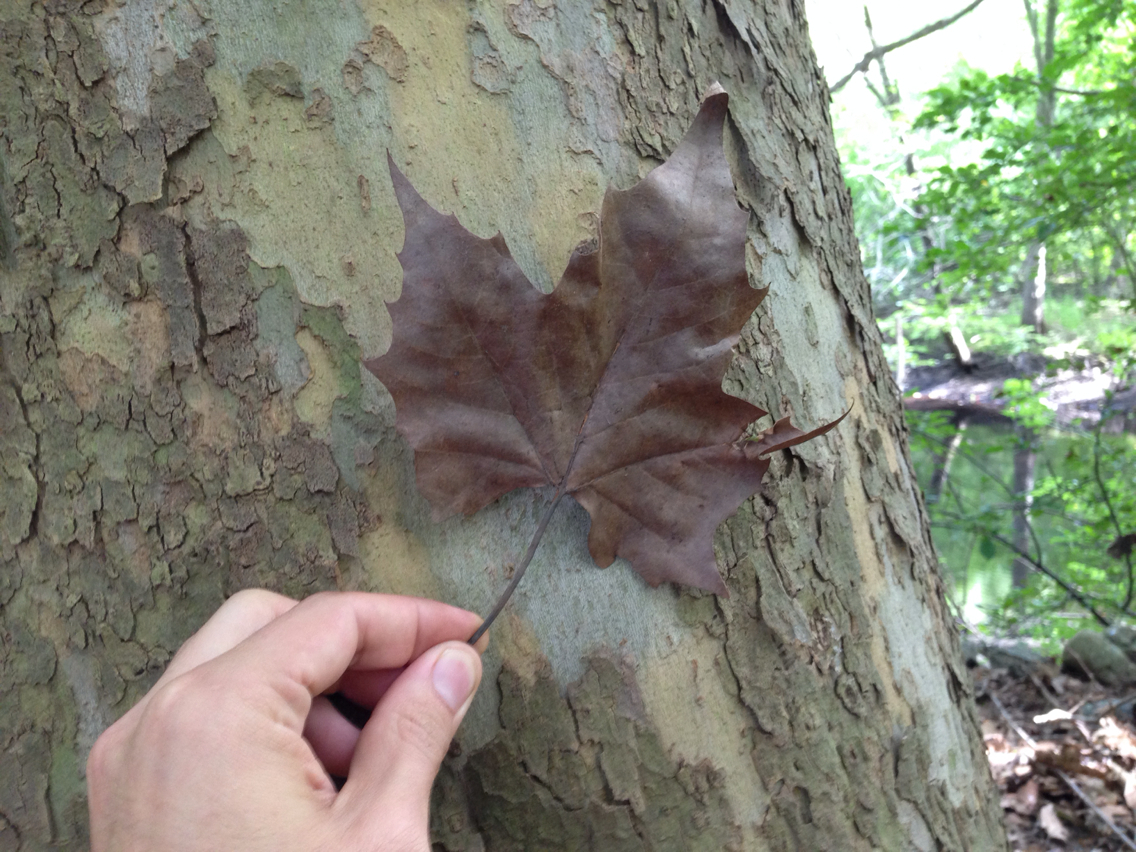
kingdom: Plantae
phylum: Tracheophyta
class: Magnoliopsida
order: Proteales
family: Platanaceae
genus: Platanus
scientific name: Platanus occidentalis
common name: American sycamore
